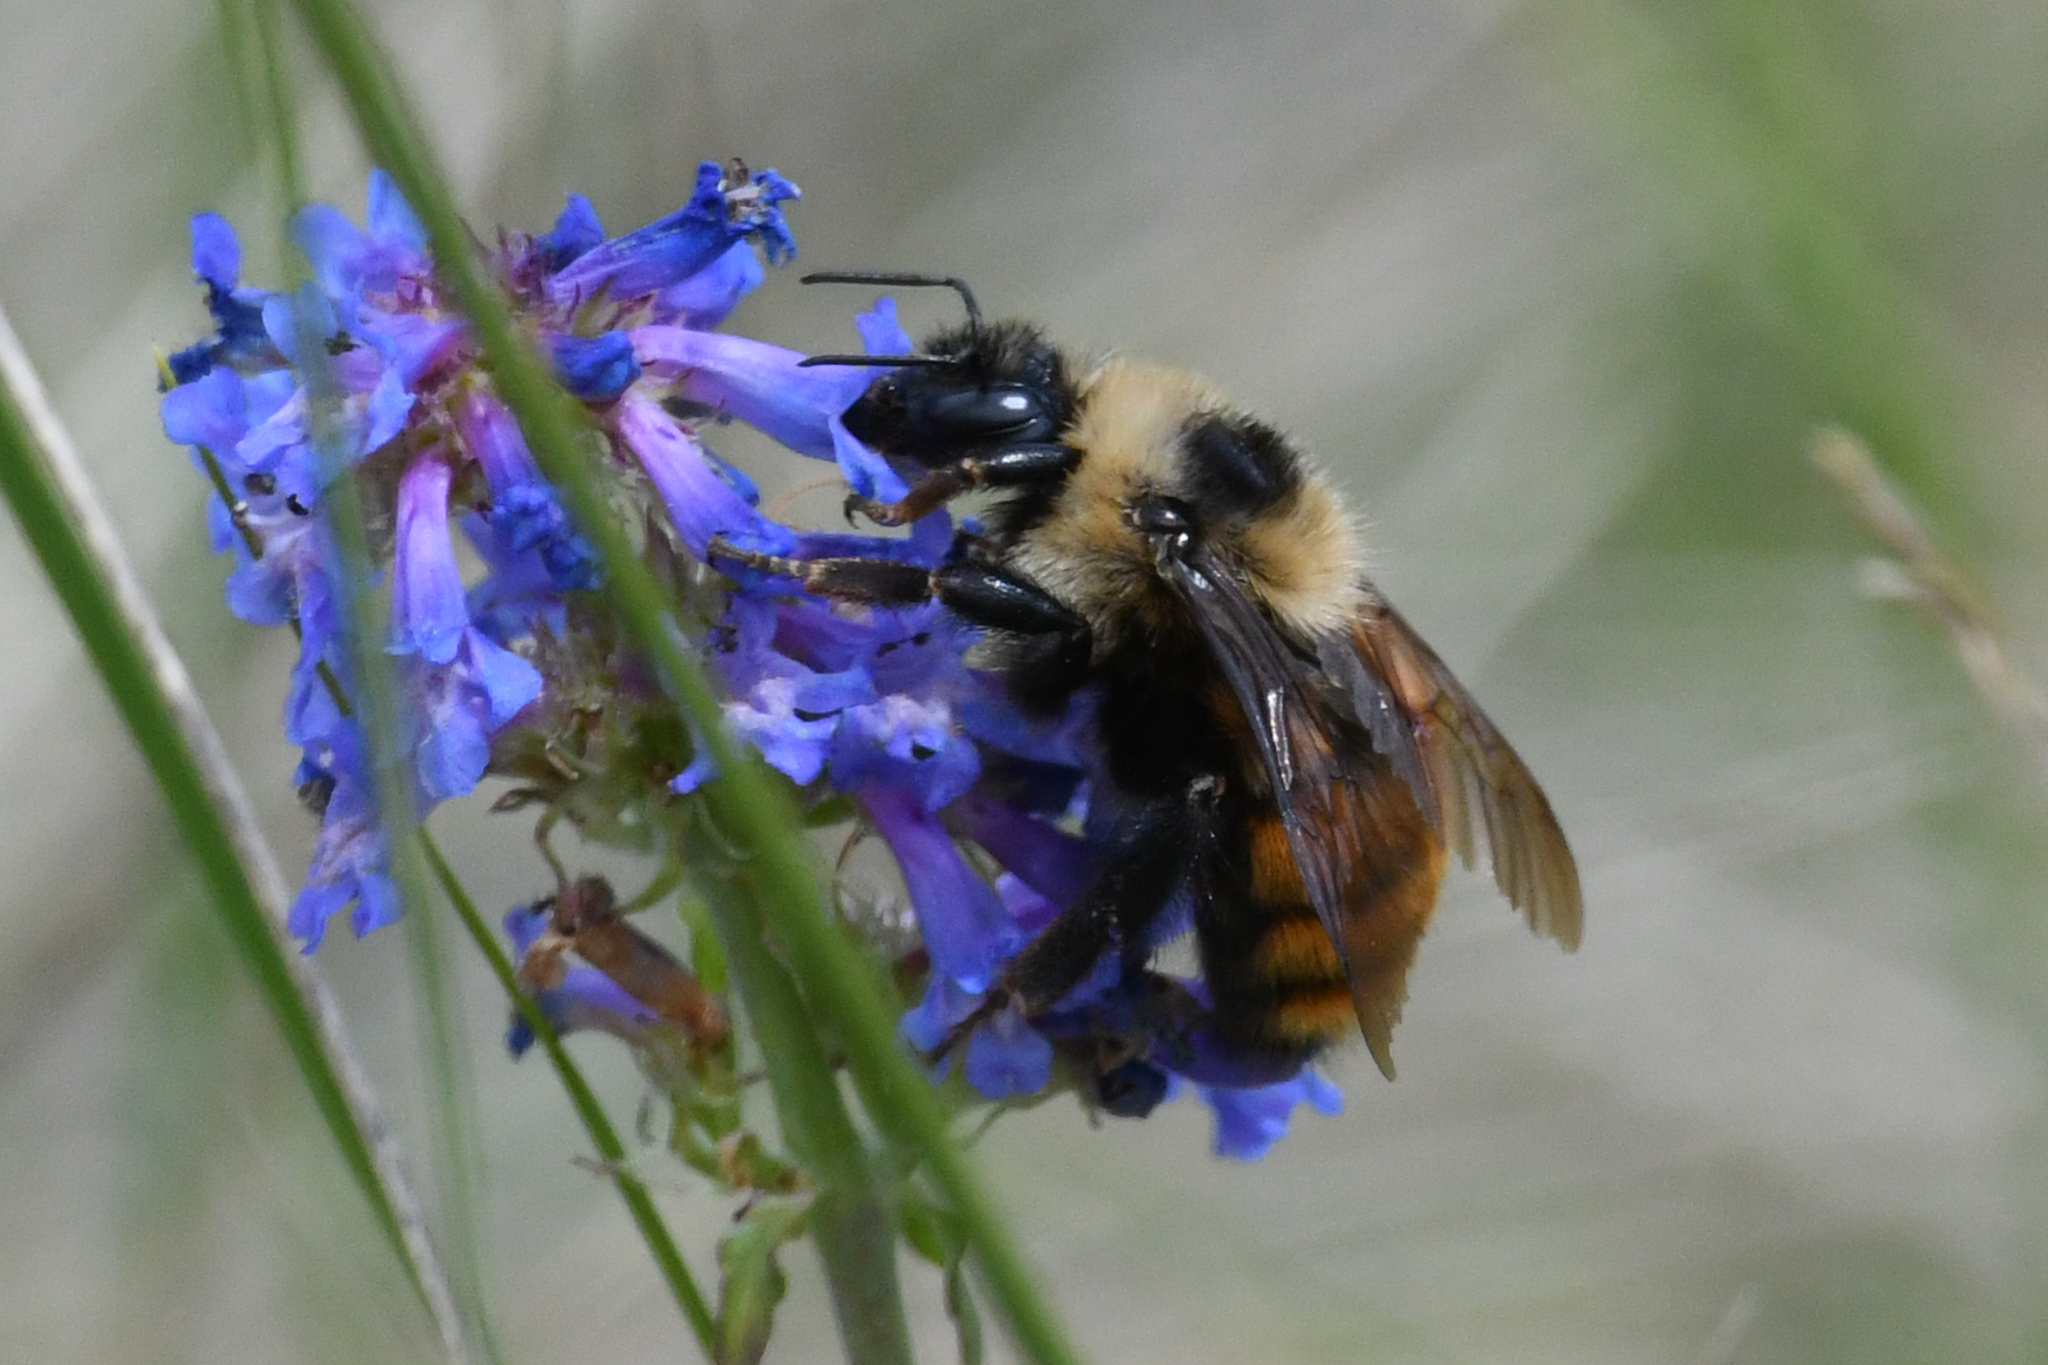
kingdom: Animalia
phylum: Arthropoda
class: Insecta
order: Hymenoptera
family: Apidae
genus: Bombus
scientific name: Bombus rufocinctus
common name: Red-belted bumble bee
